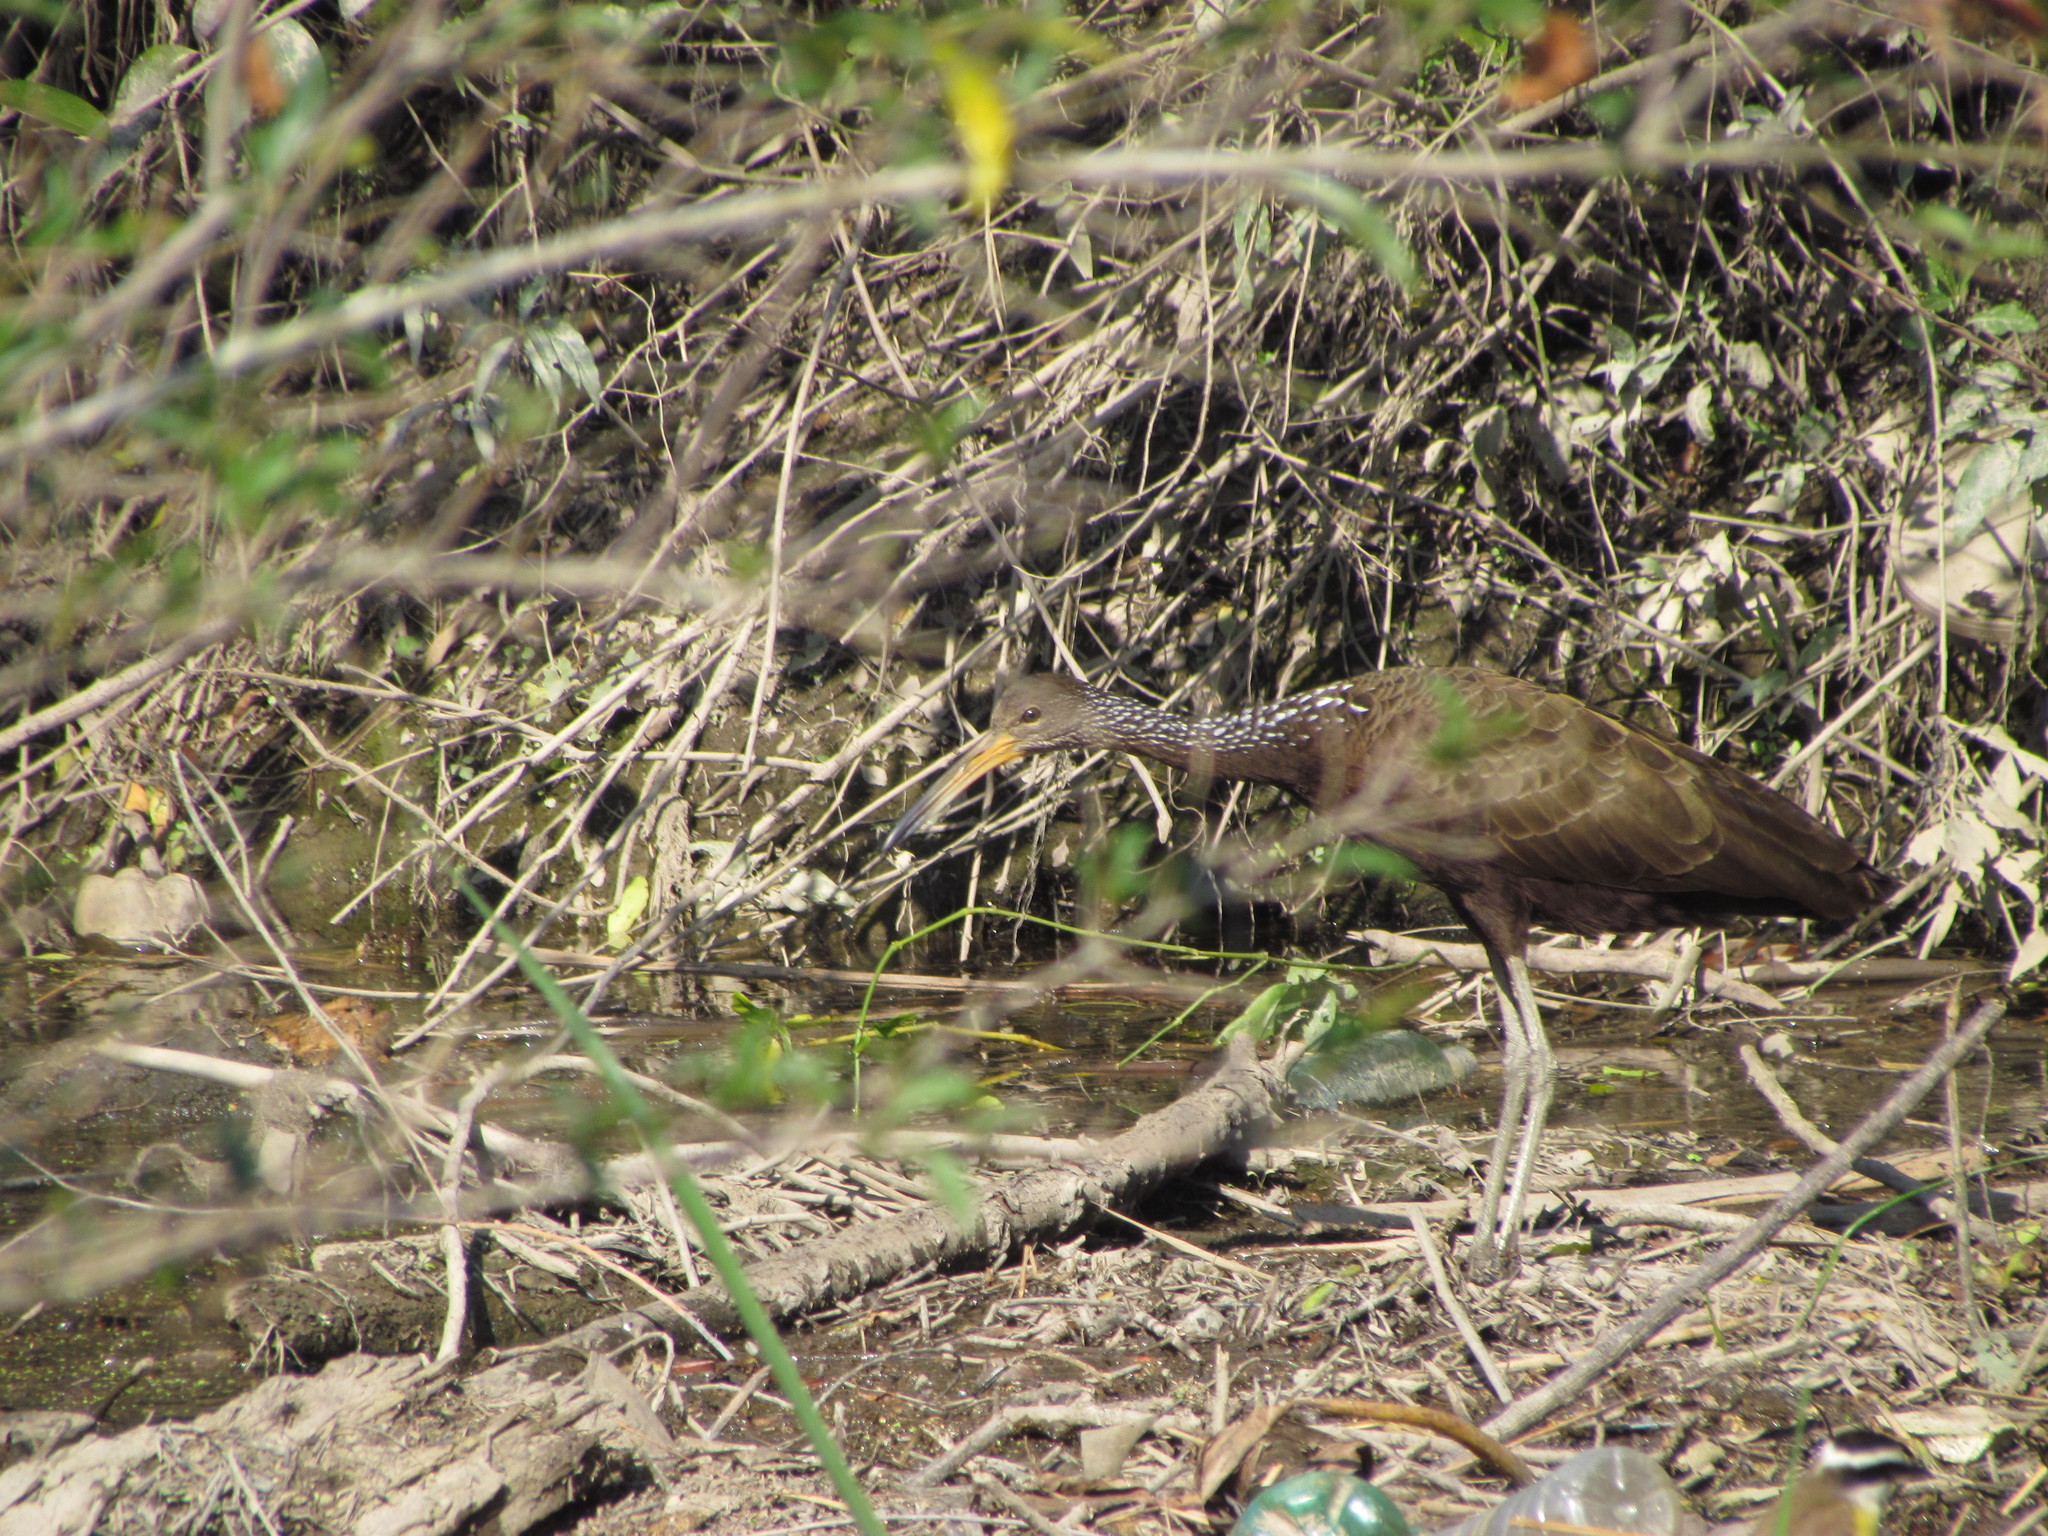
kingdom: Animalia
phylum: Chordata
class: Aves
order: Gruiformes
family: Aramidae
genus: Aramus
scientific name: Aramus guarauna
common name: Limpkin
